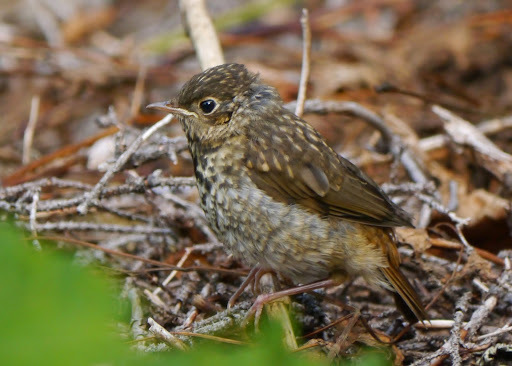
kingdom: Animalia
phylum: Chordata
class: Aves
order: Passeriformes
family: Turdidae
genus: Catharus
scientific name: Catharus guttatus
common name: Hermit thrush
